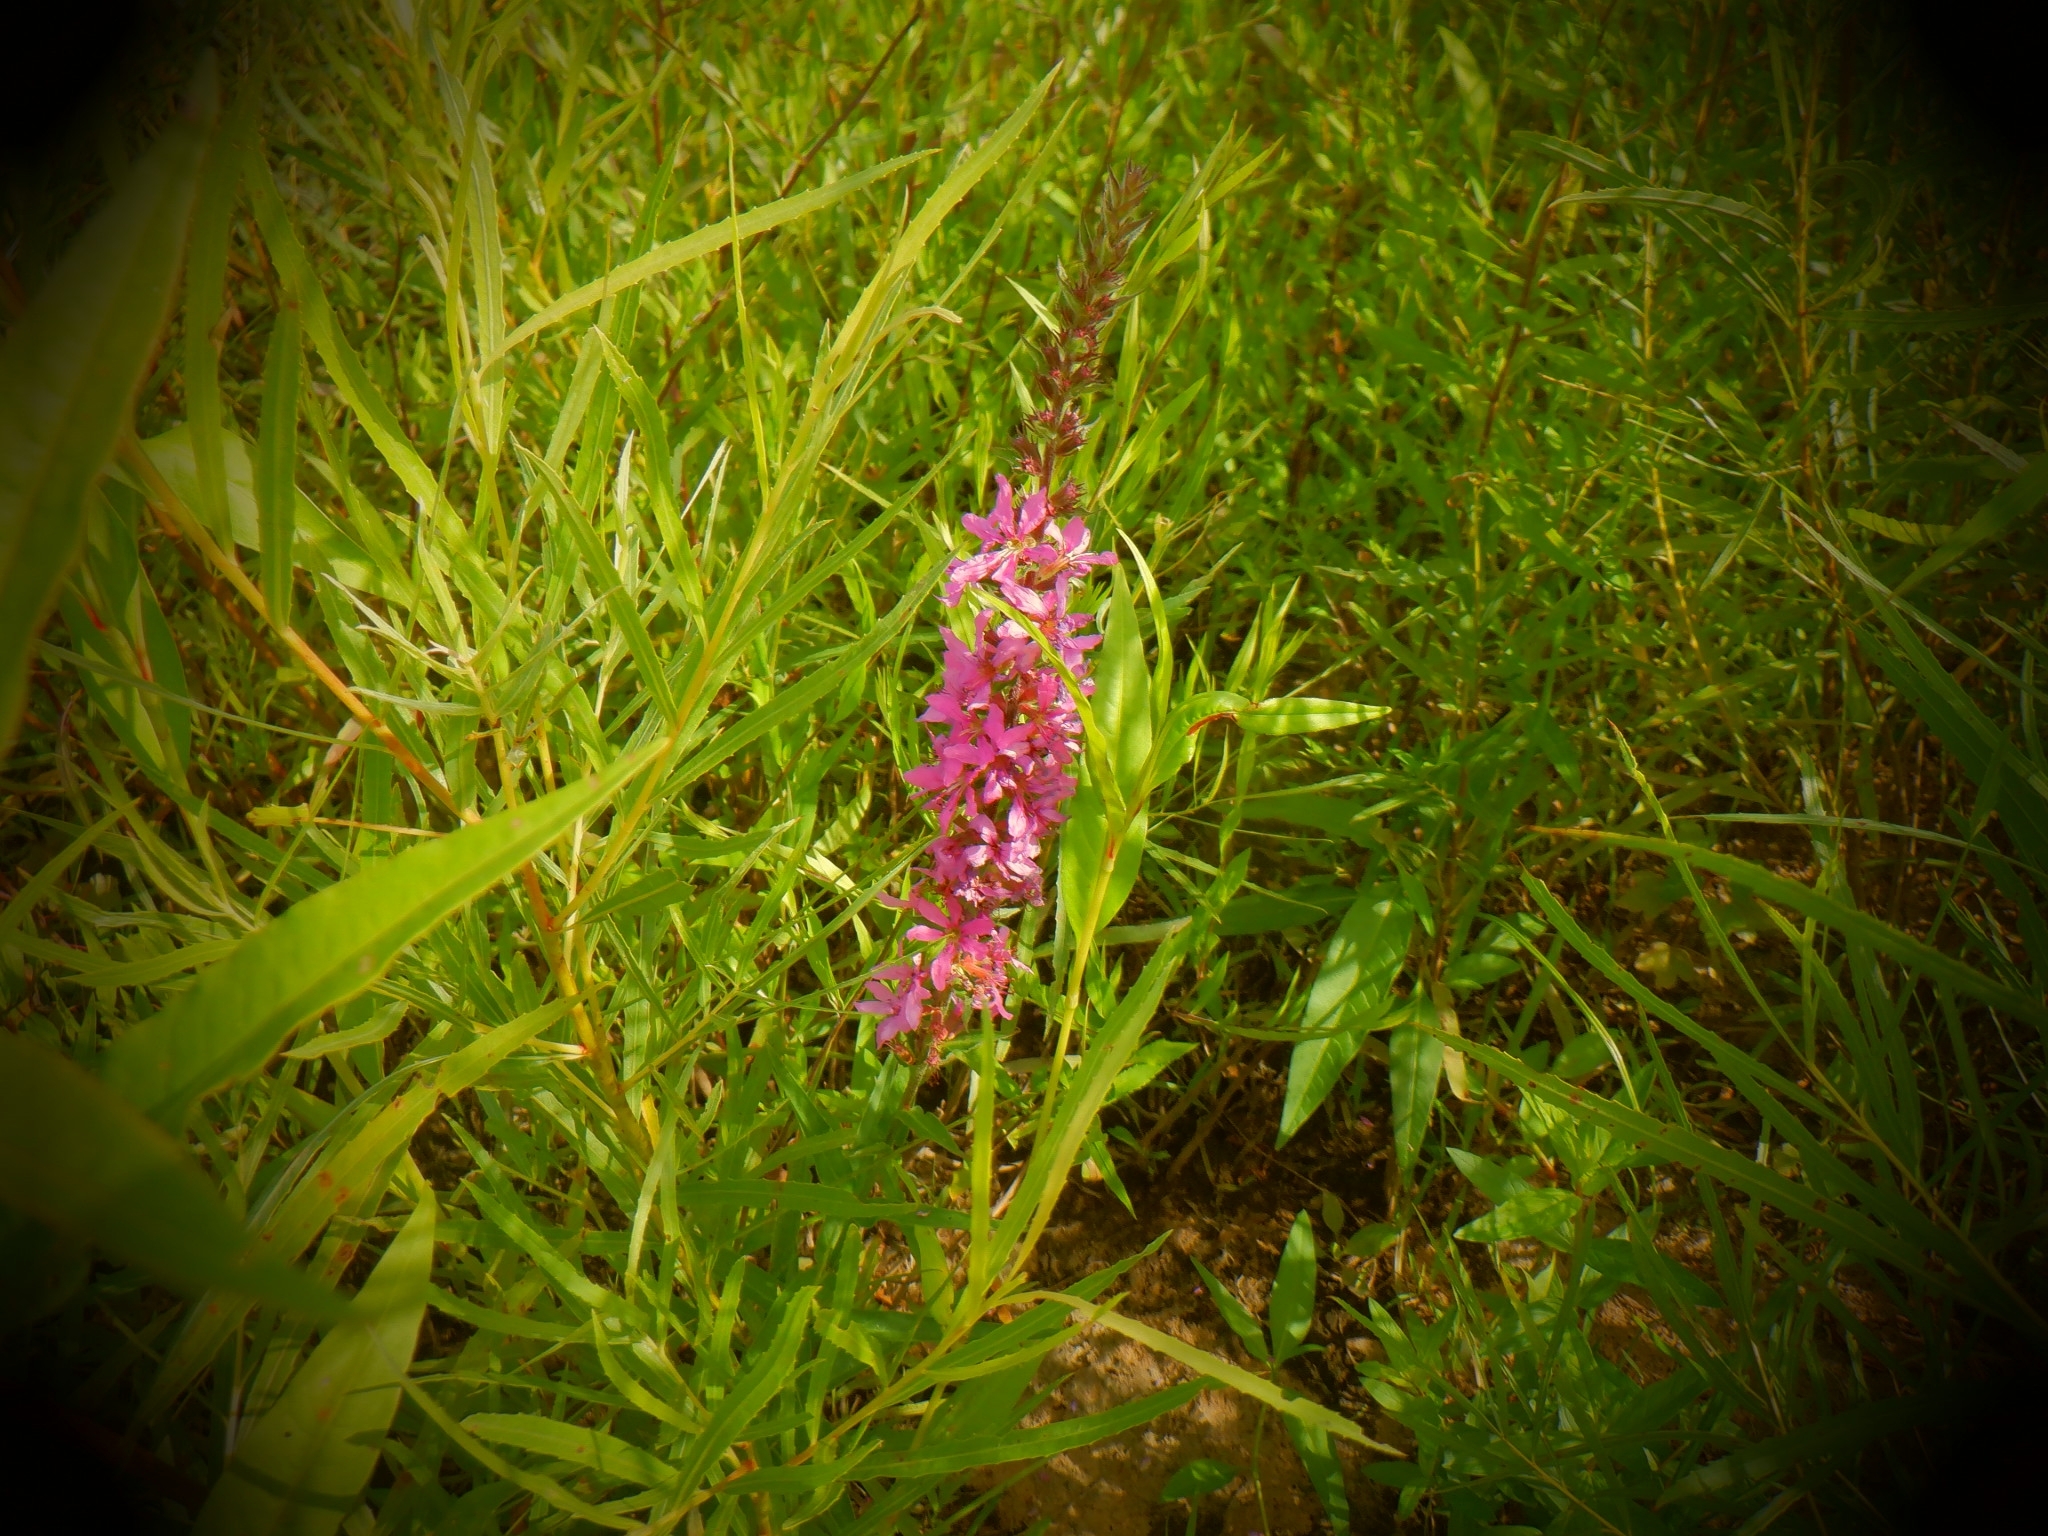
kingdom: Plantae
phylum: Tracheophyta
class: Magnoliopsida
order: Myrtales
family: Lythraceae
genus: Lythrum
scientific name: Lythrum salicaria
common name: Purple loosestrife
